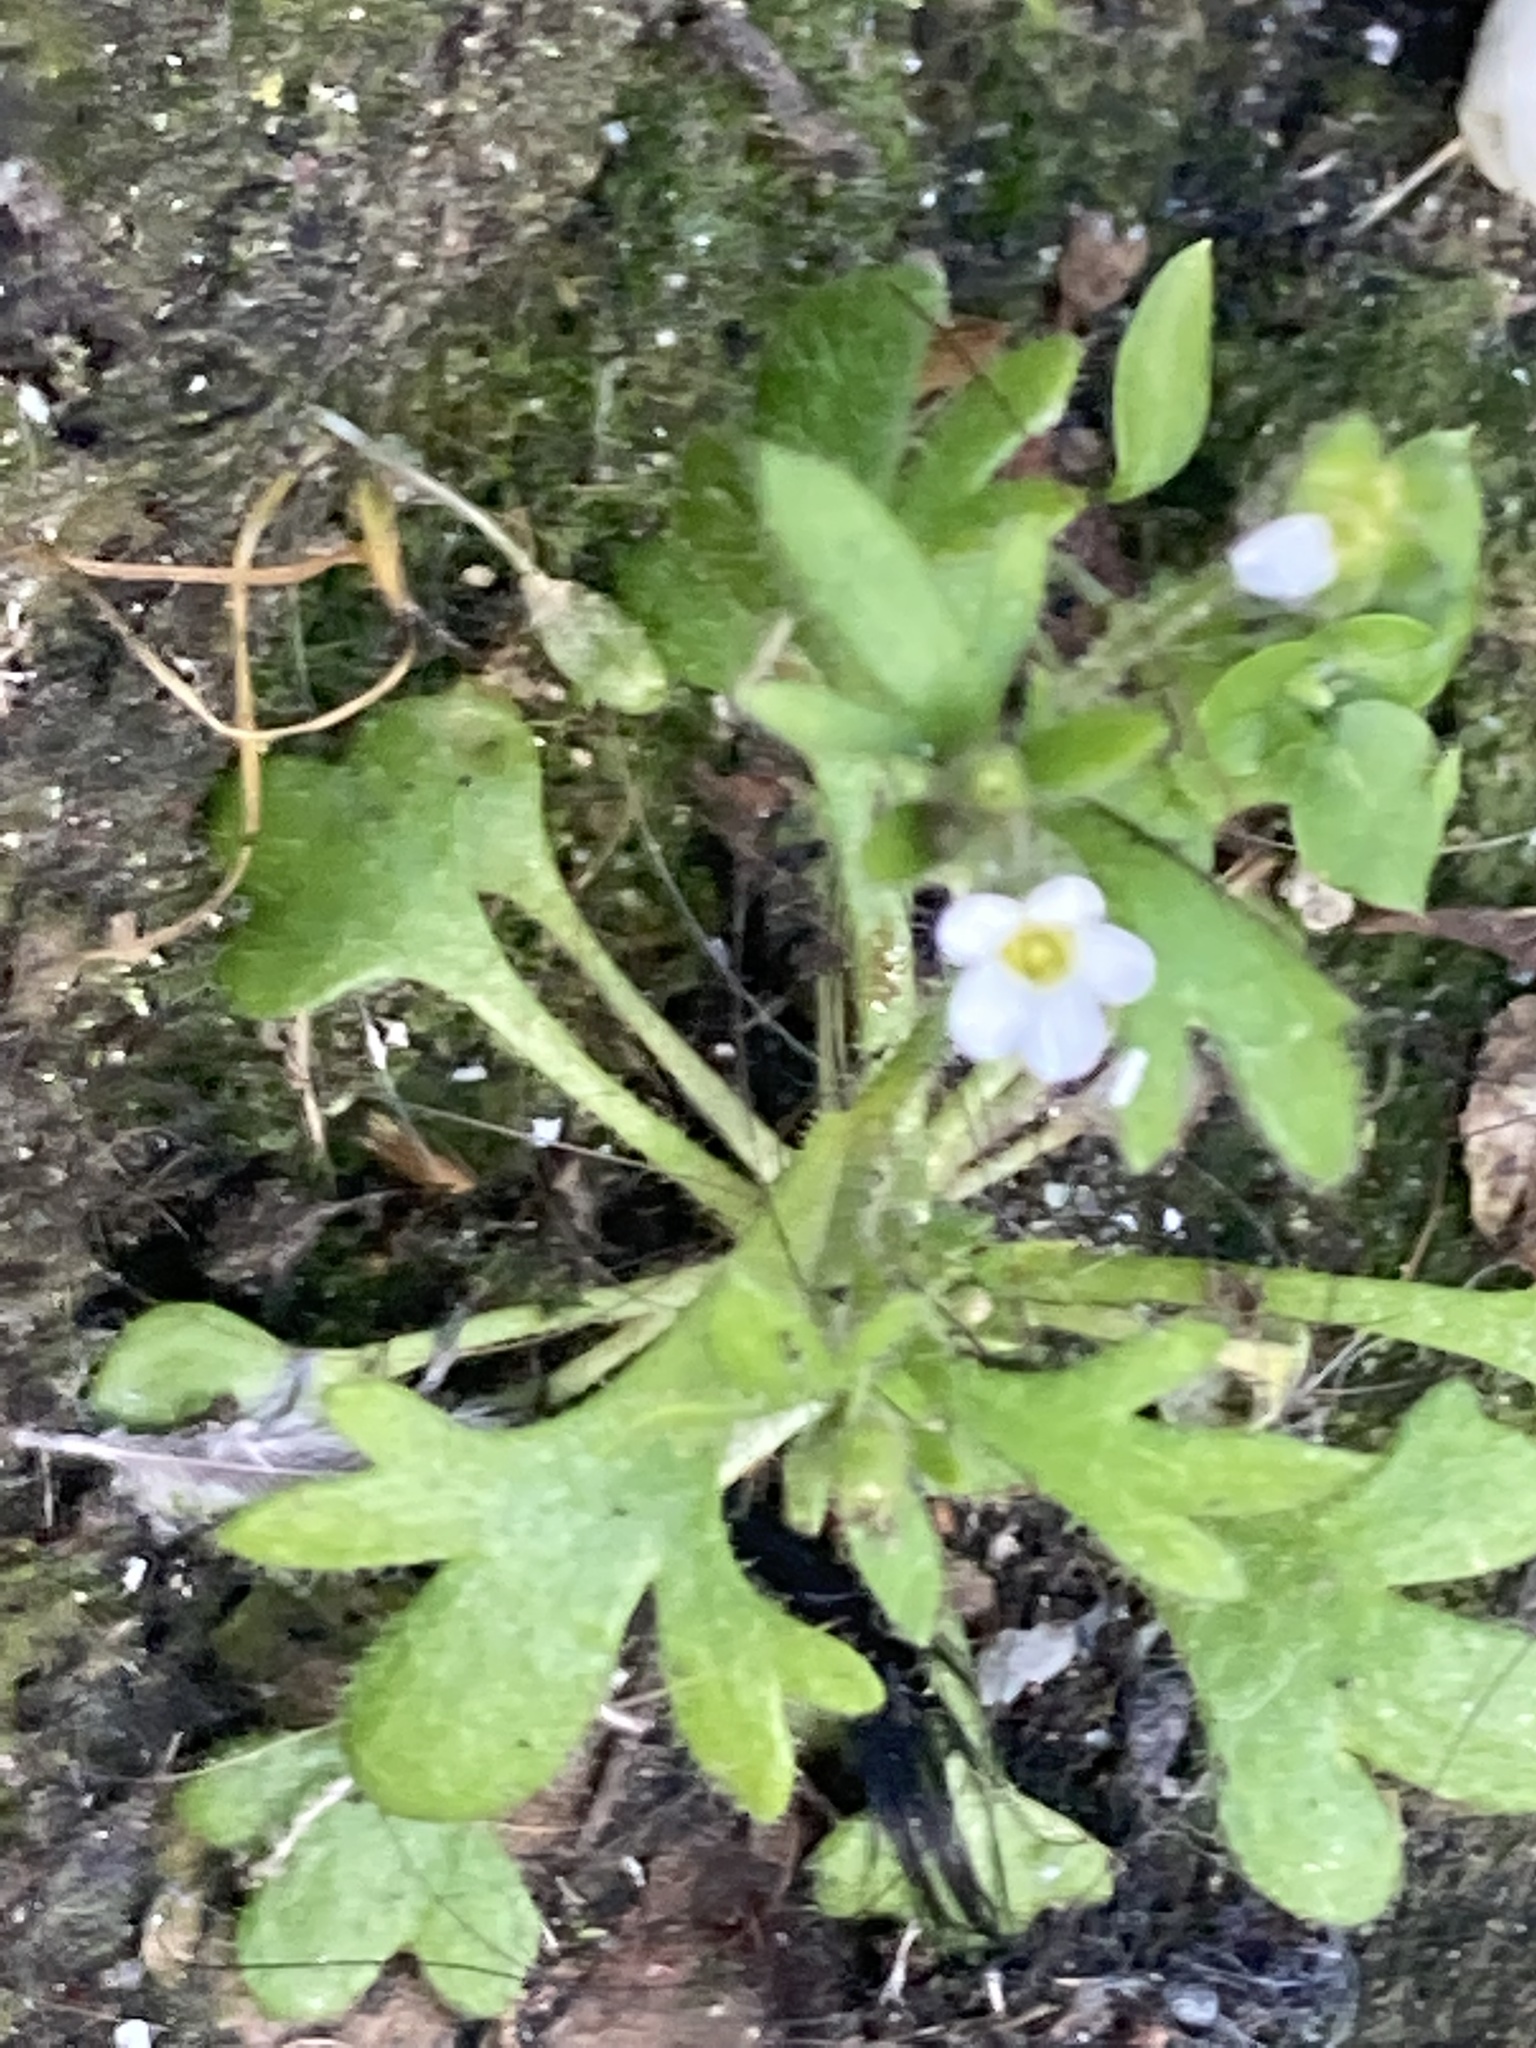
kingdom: Plantae
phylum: Tracheophyta
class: Magnoliopsida
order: Saxifragales
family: Saxifragaceae
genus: Saxifraga
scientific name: Saxifraga tridactylites
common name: Rue-leaved saxifrage
